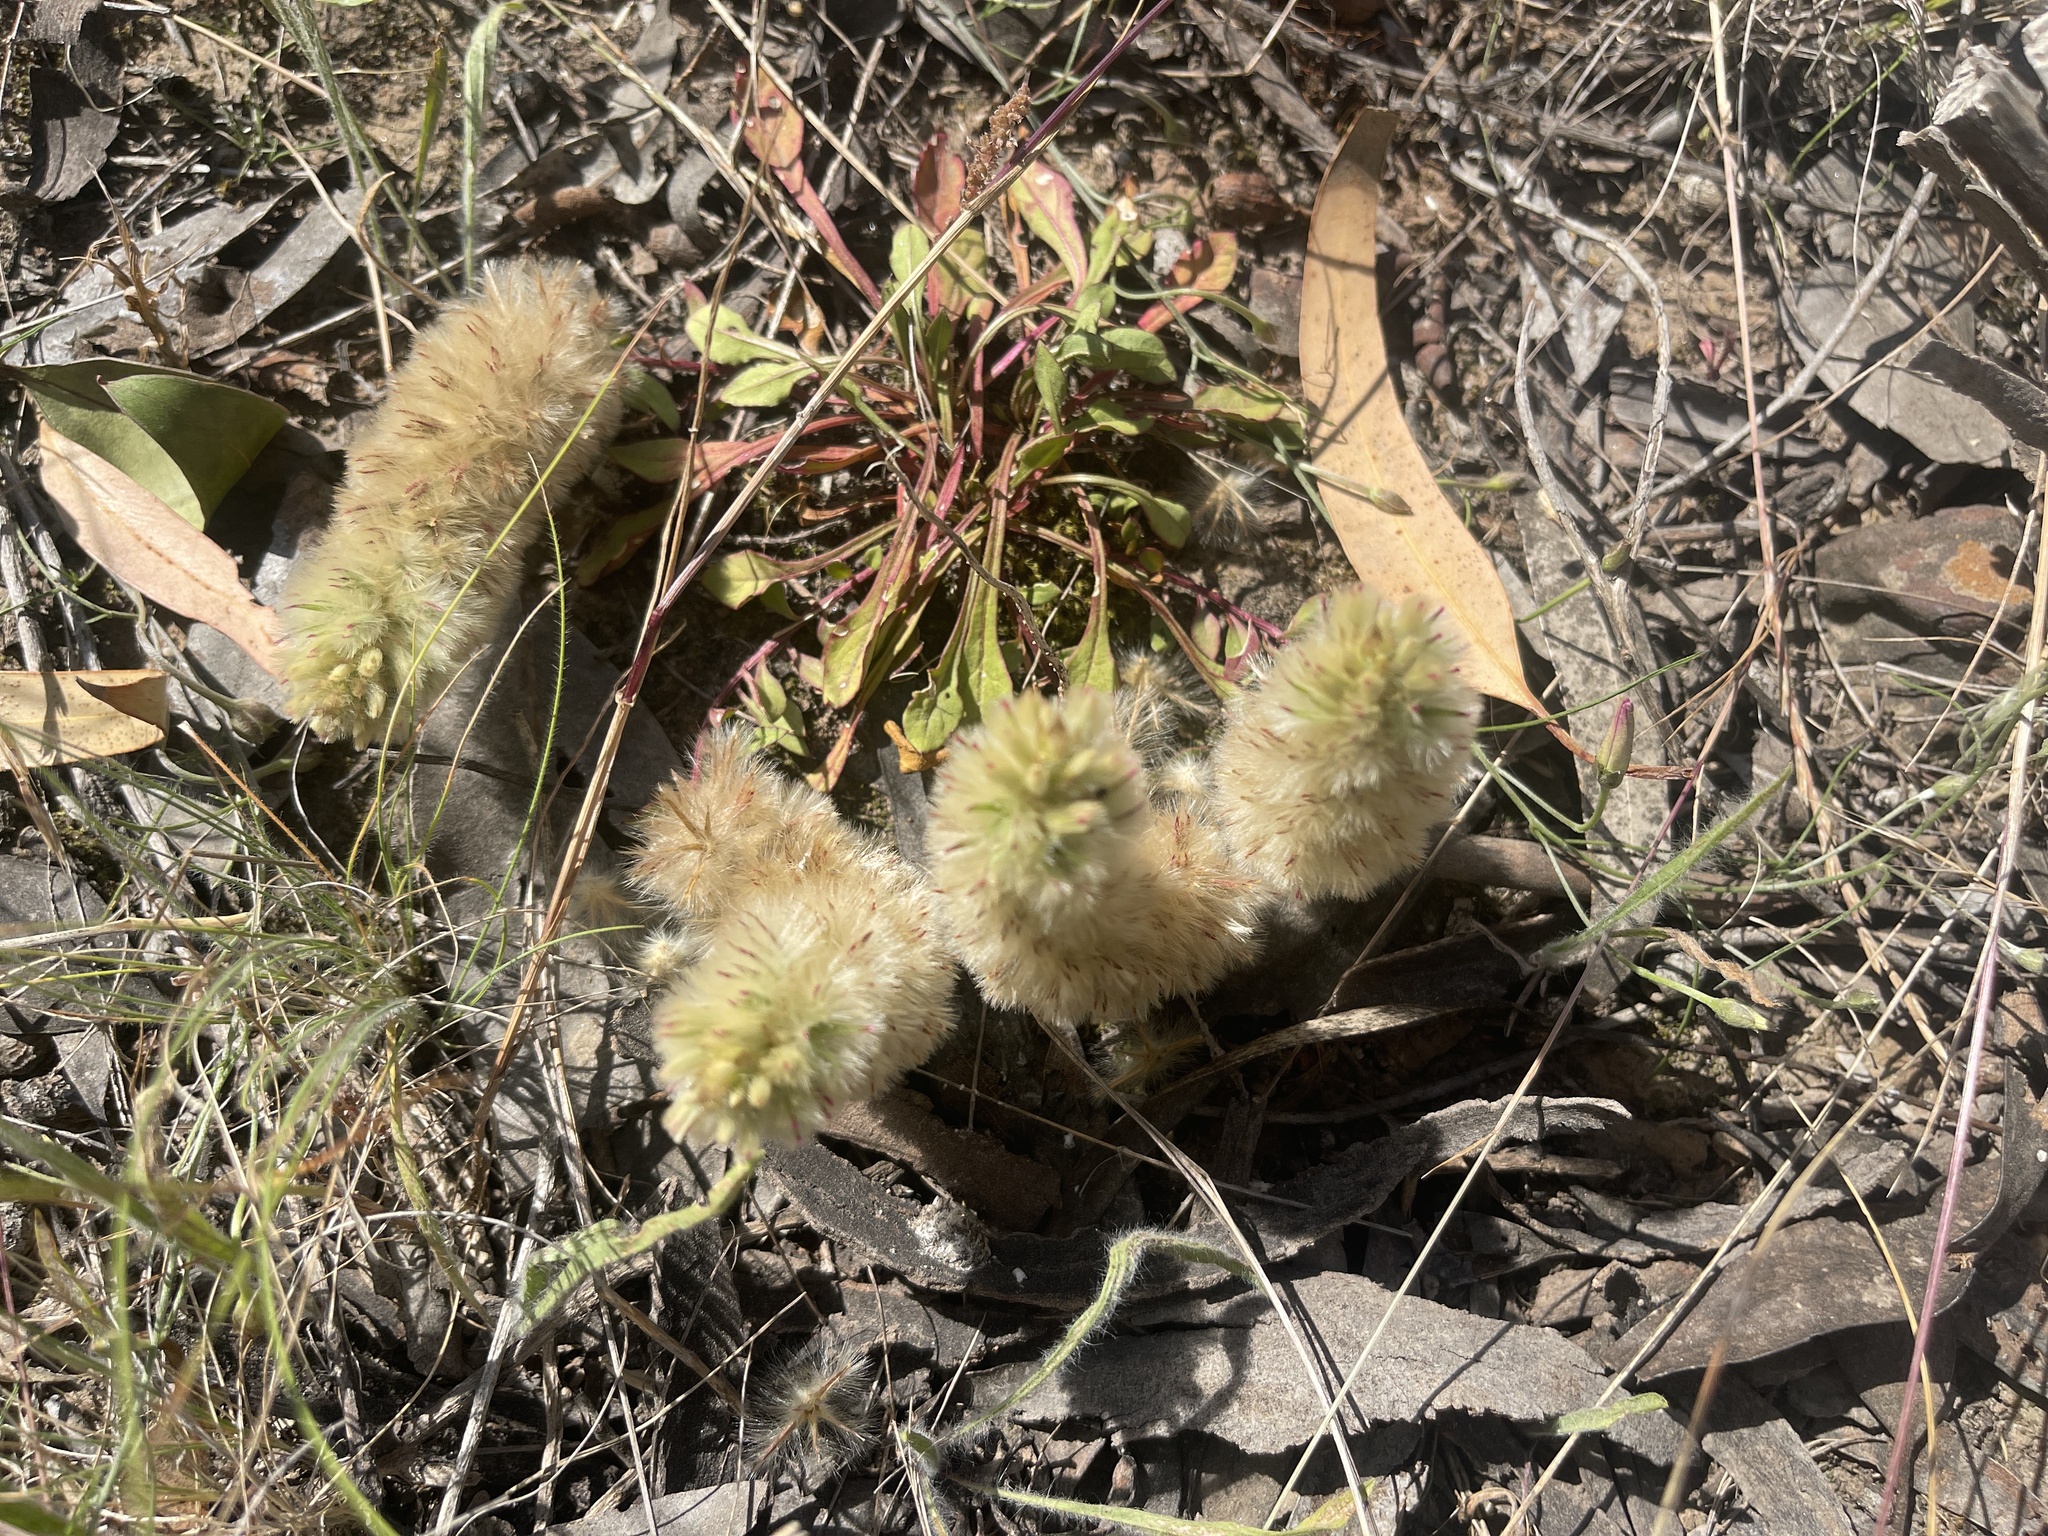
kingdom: Plantae
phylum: Tracheophyta
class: Magnoliopsida
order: Caryophyllales
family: Amaranthaceae
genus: Ptilotus
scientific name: Ptilotus spathulatus
